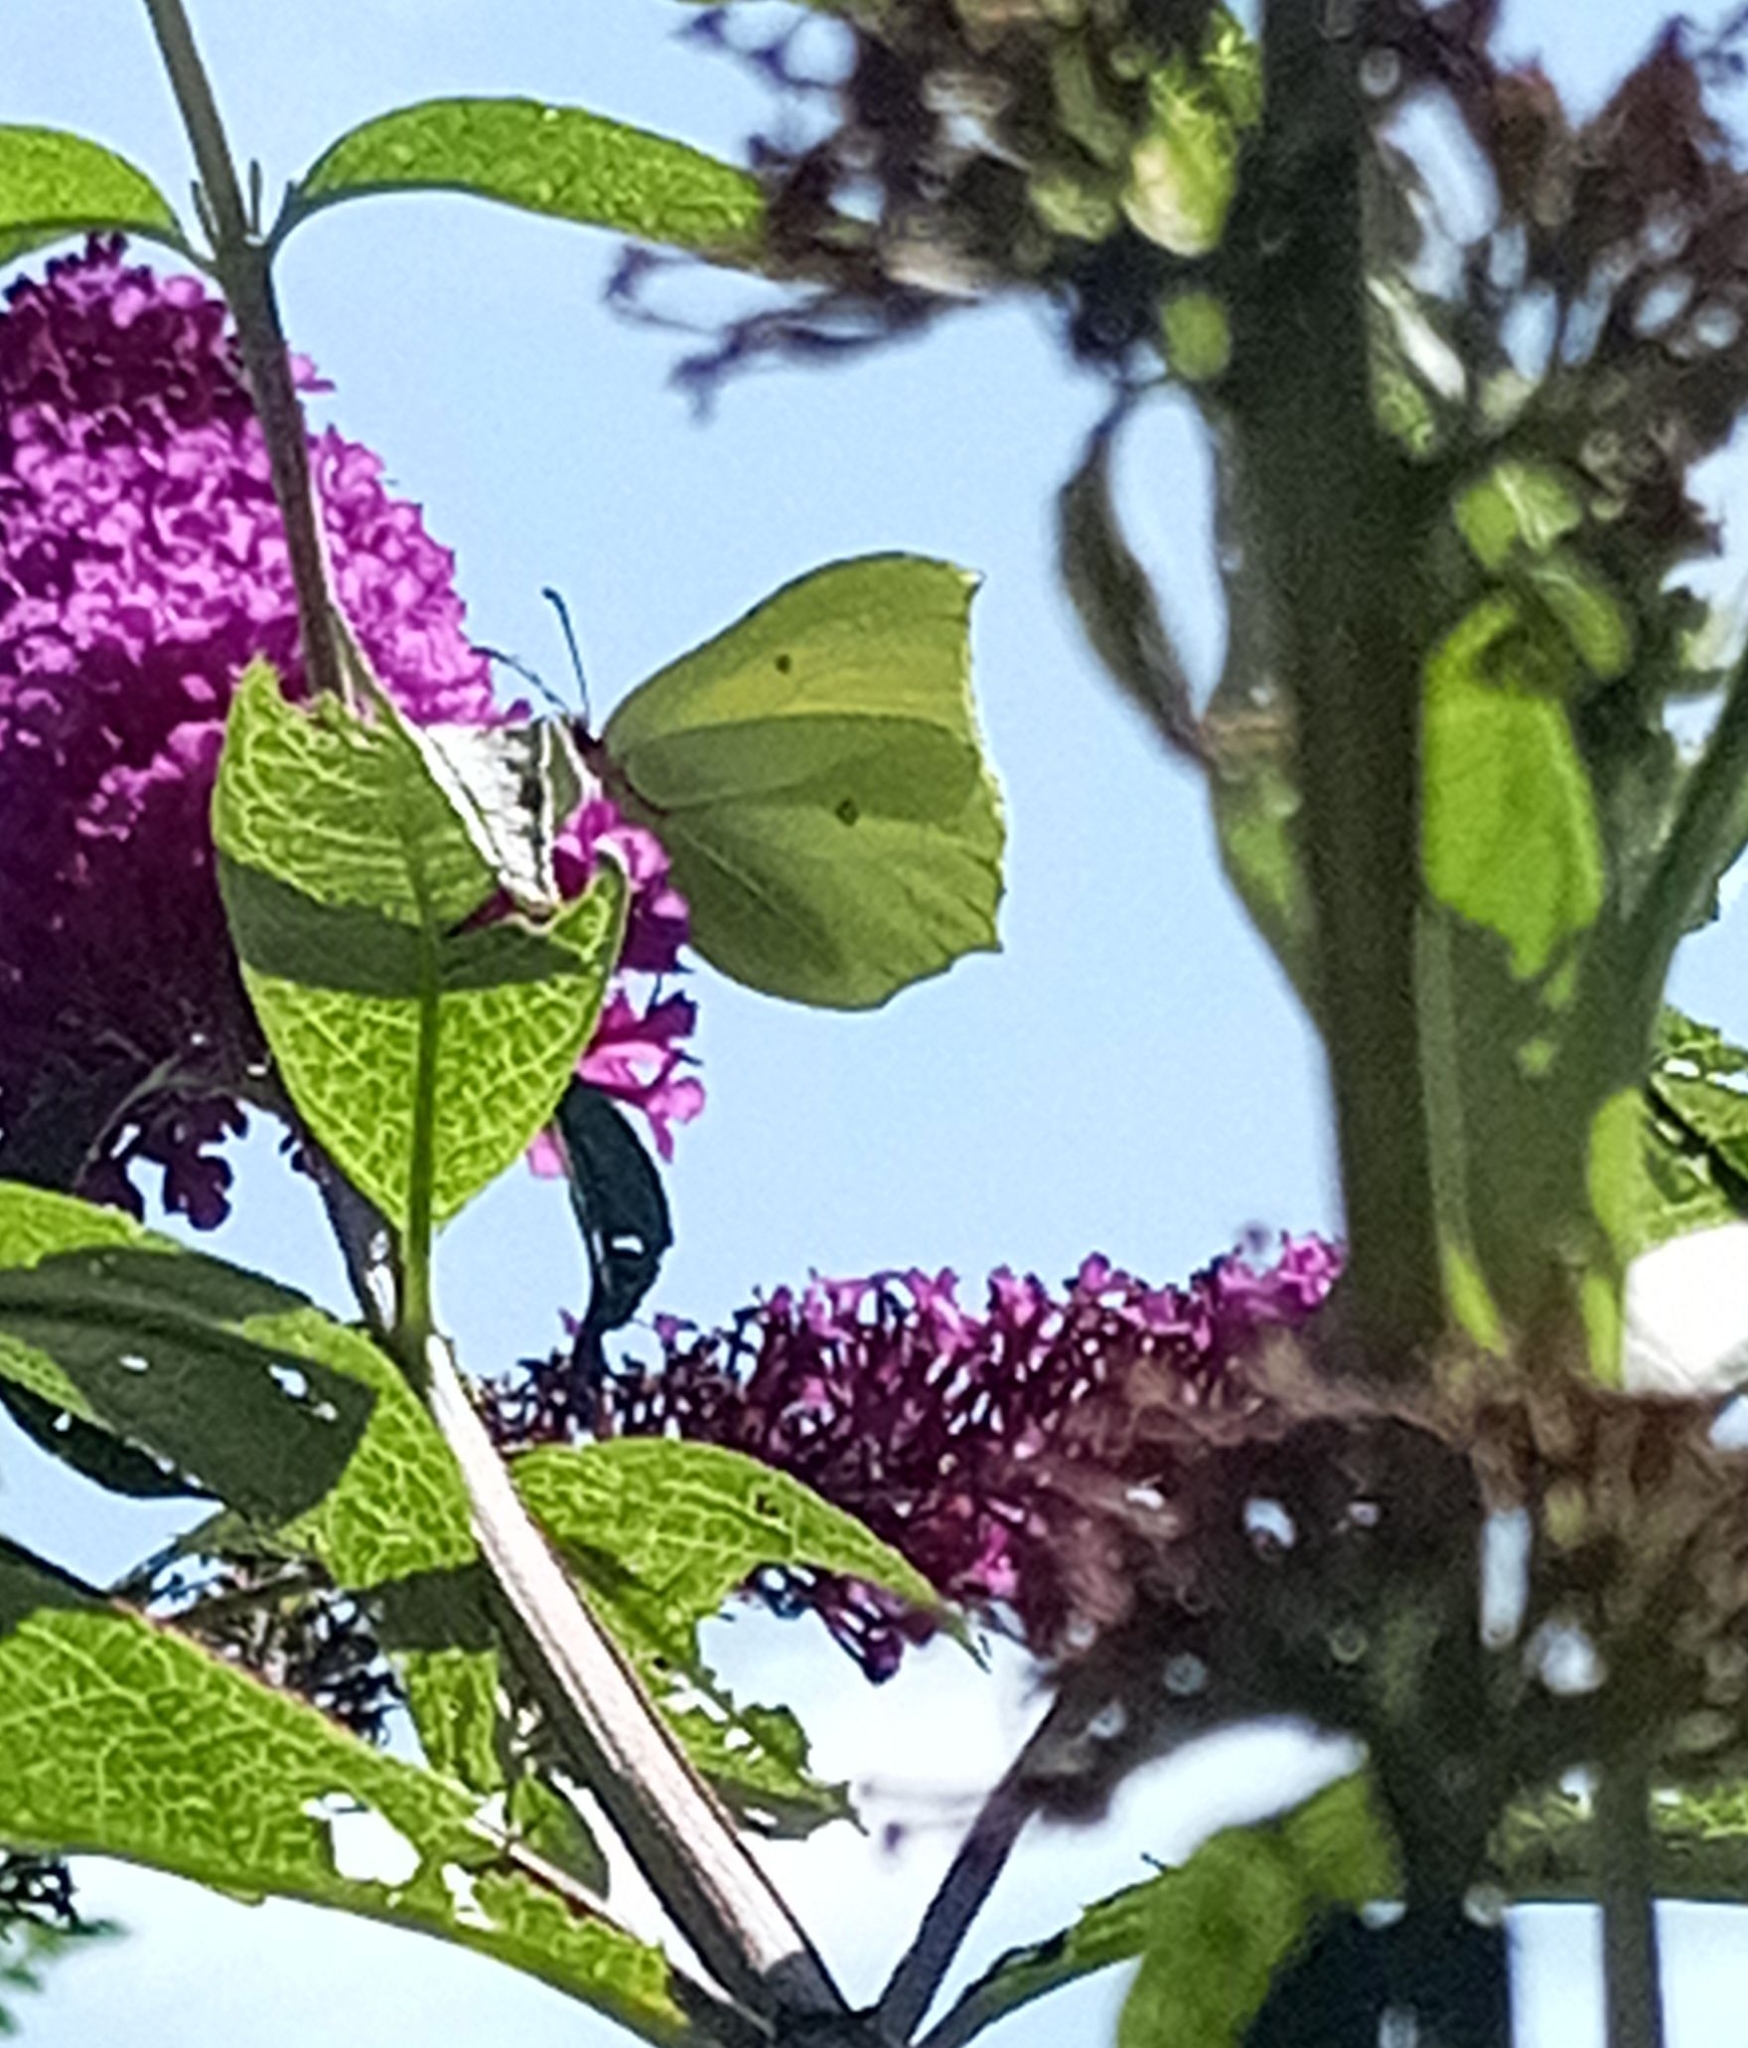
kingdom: Animalia
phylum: Arthropoda
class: Insecta
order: Lepidoptera
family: Pieridae
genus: Gonepteryx
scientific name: Gonepteryx rhamni
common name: Brimstone
